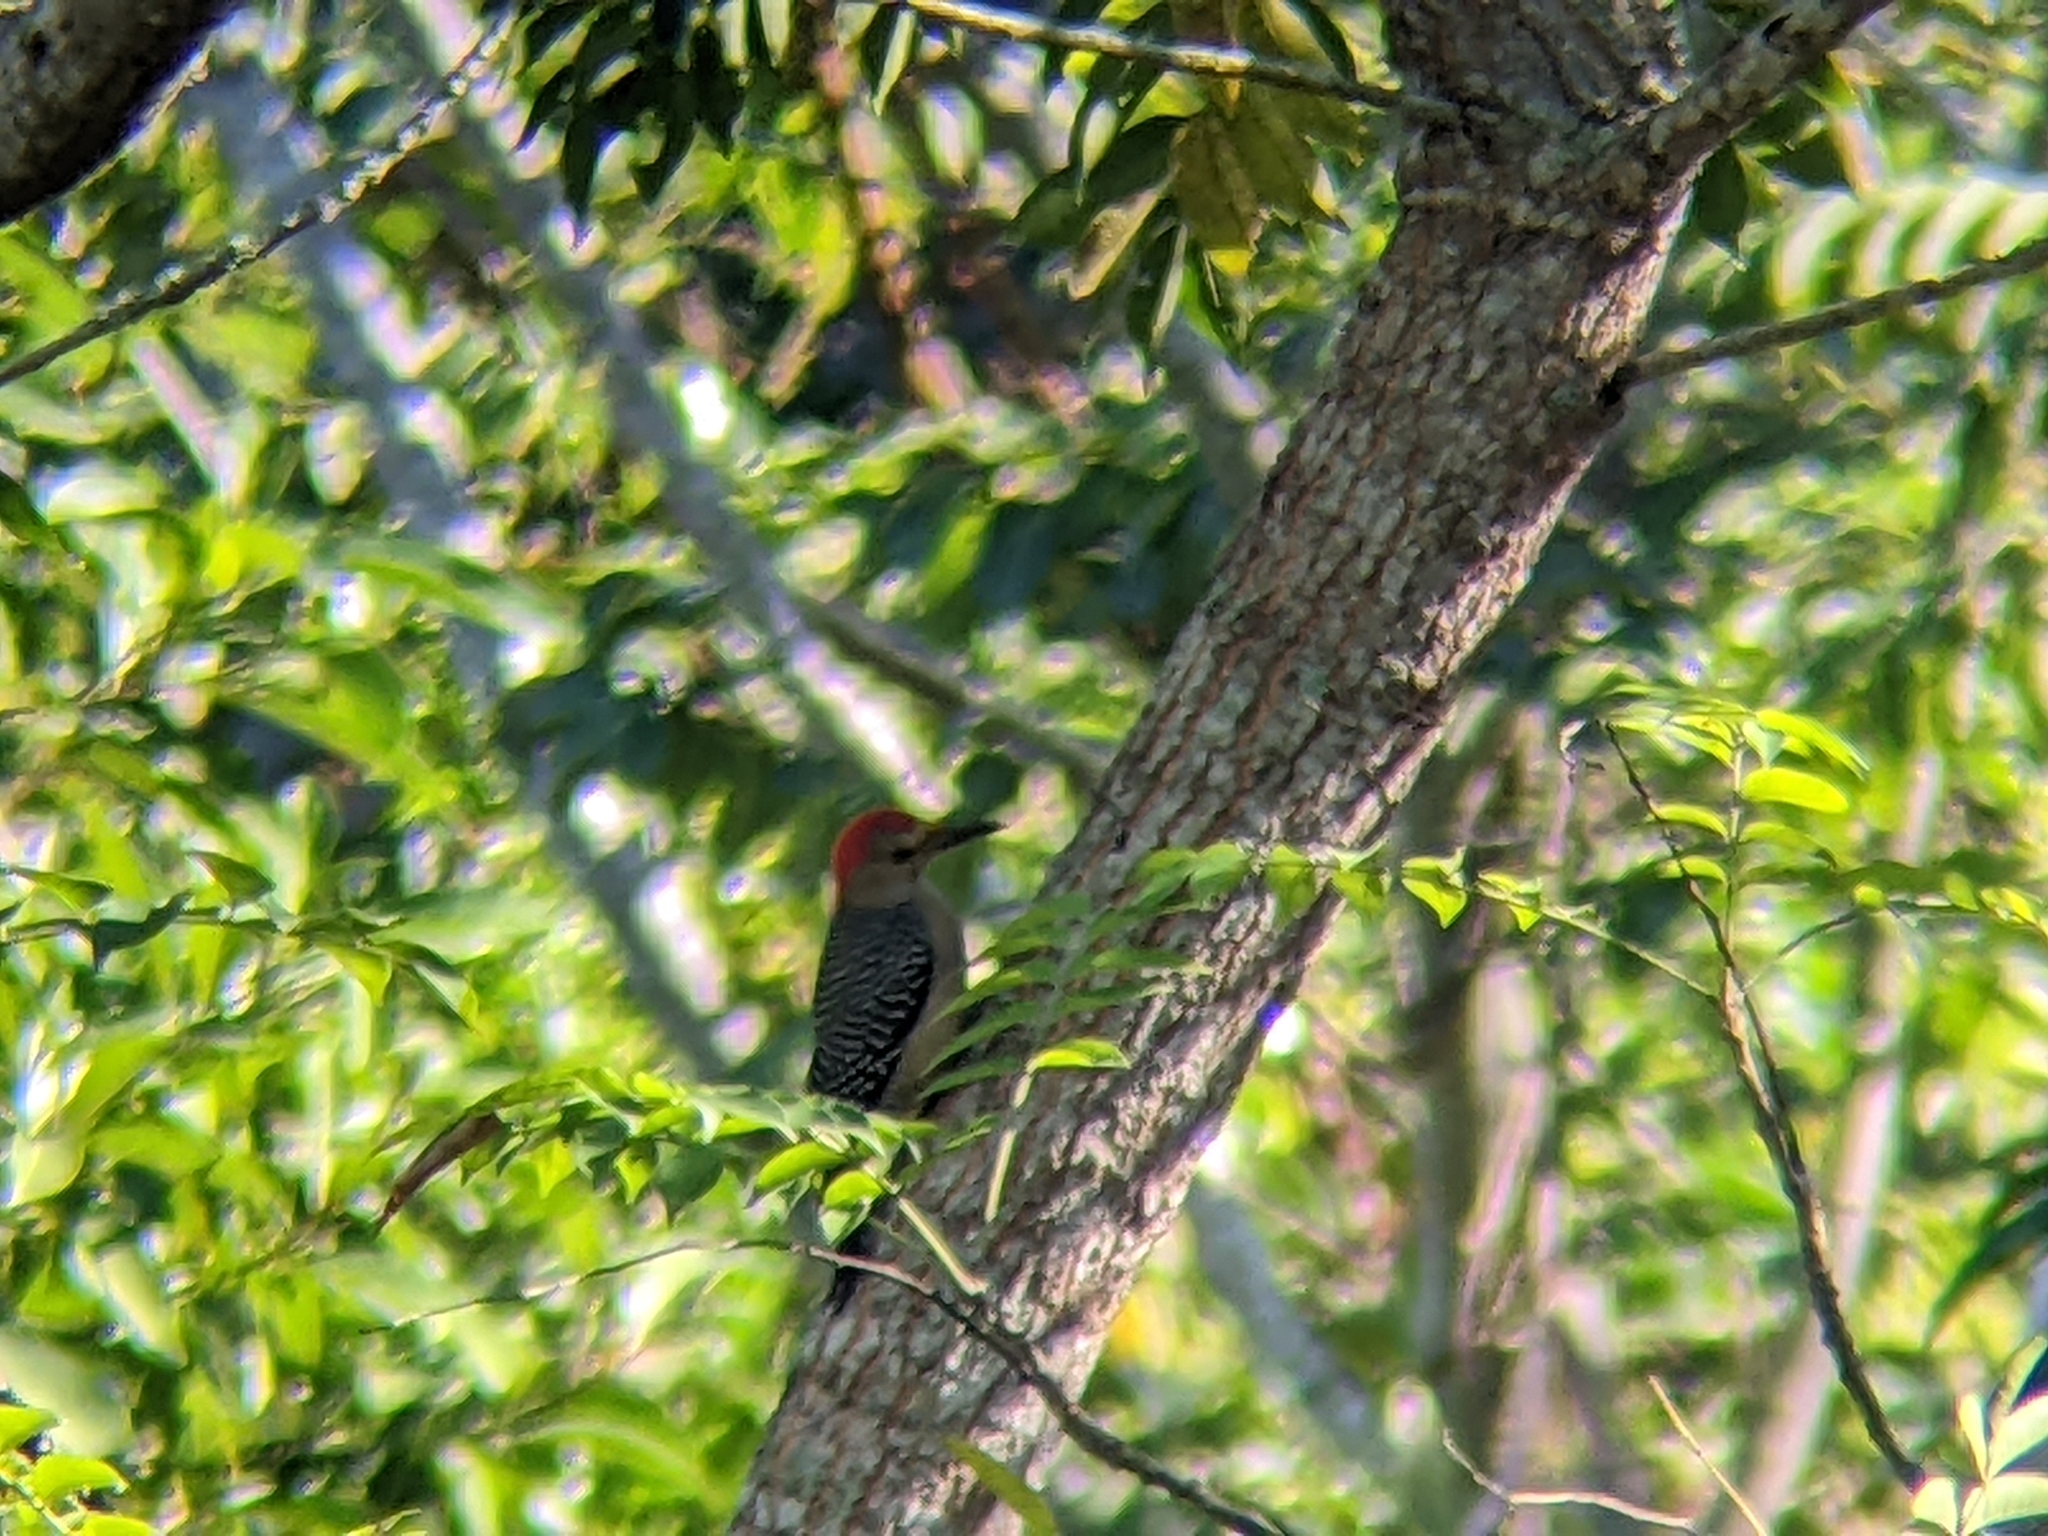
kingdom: Animalia
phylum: Chordata
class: Aves
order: Piciformes
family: Picidae
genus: Melanerpes
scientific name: Melanerpes aurifrons
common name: Golden-fronted woodpecker
